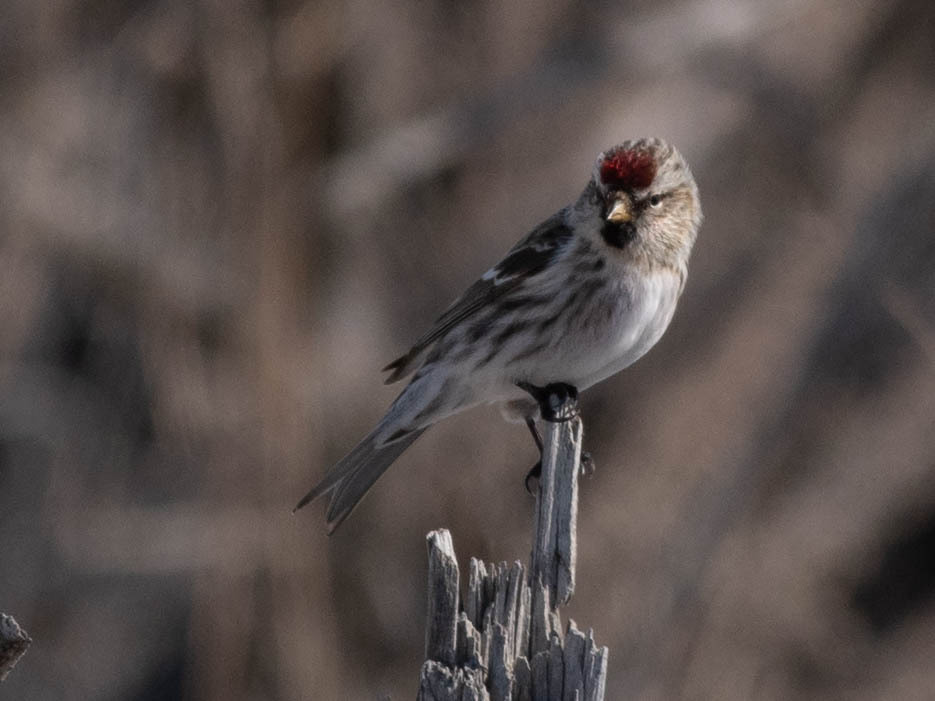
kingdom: Animalia
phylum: Chordata
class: Aves
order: Passeriformes
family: Fringillidae
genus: Acanthis
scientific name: Acanthis flammea
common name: Common redpoll
